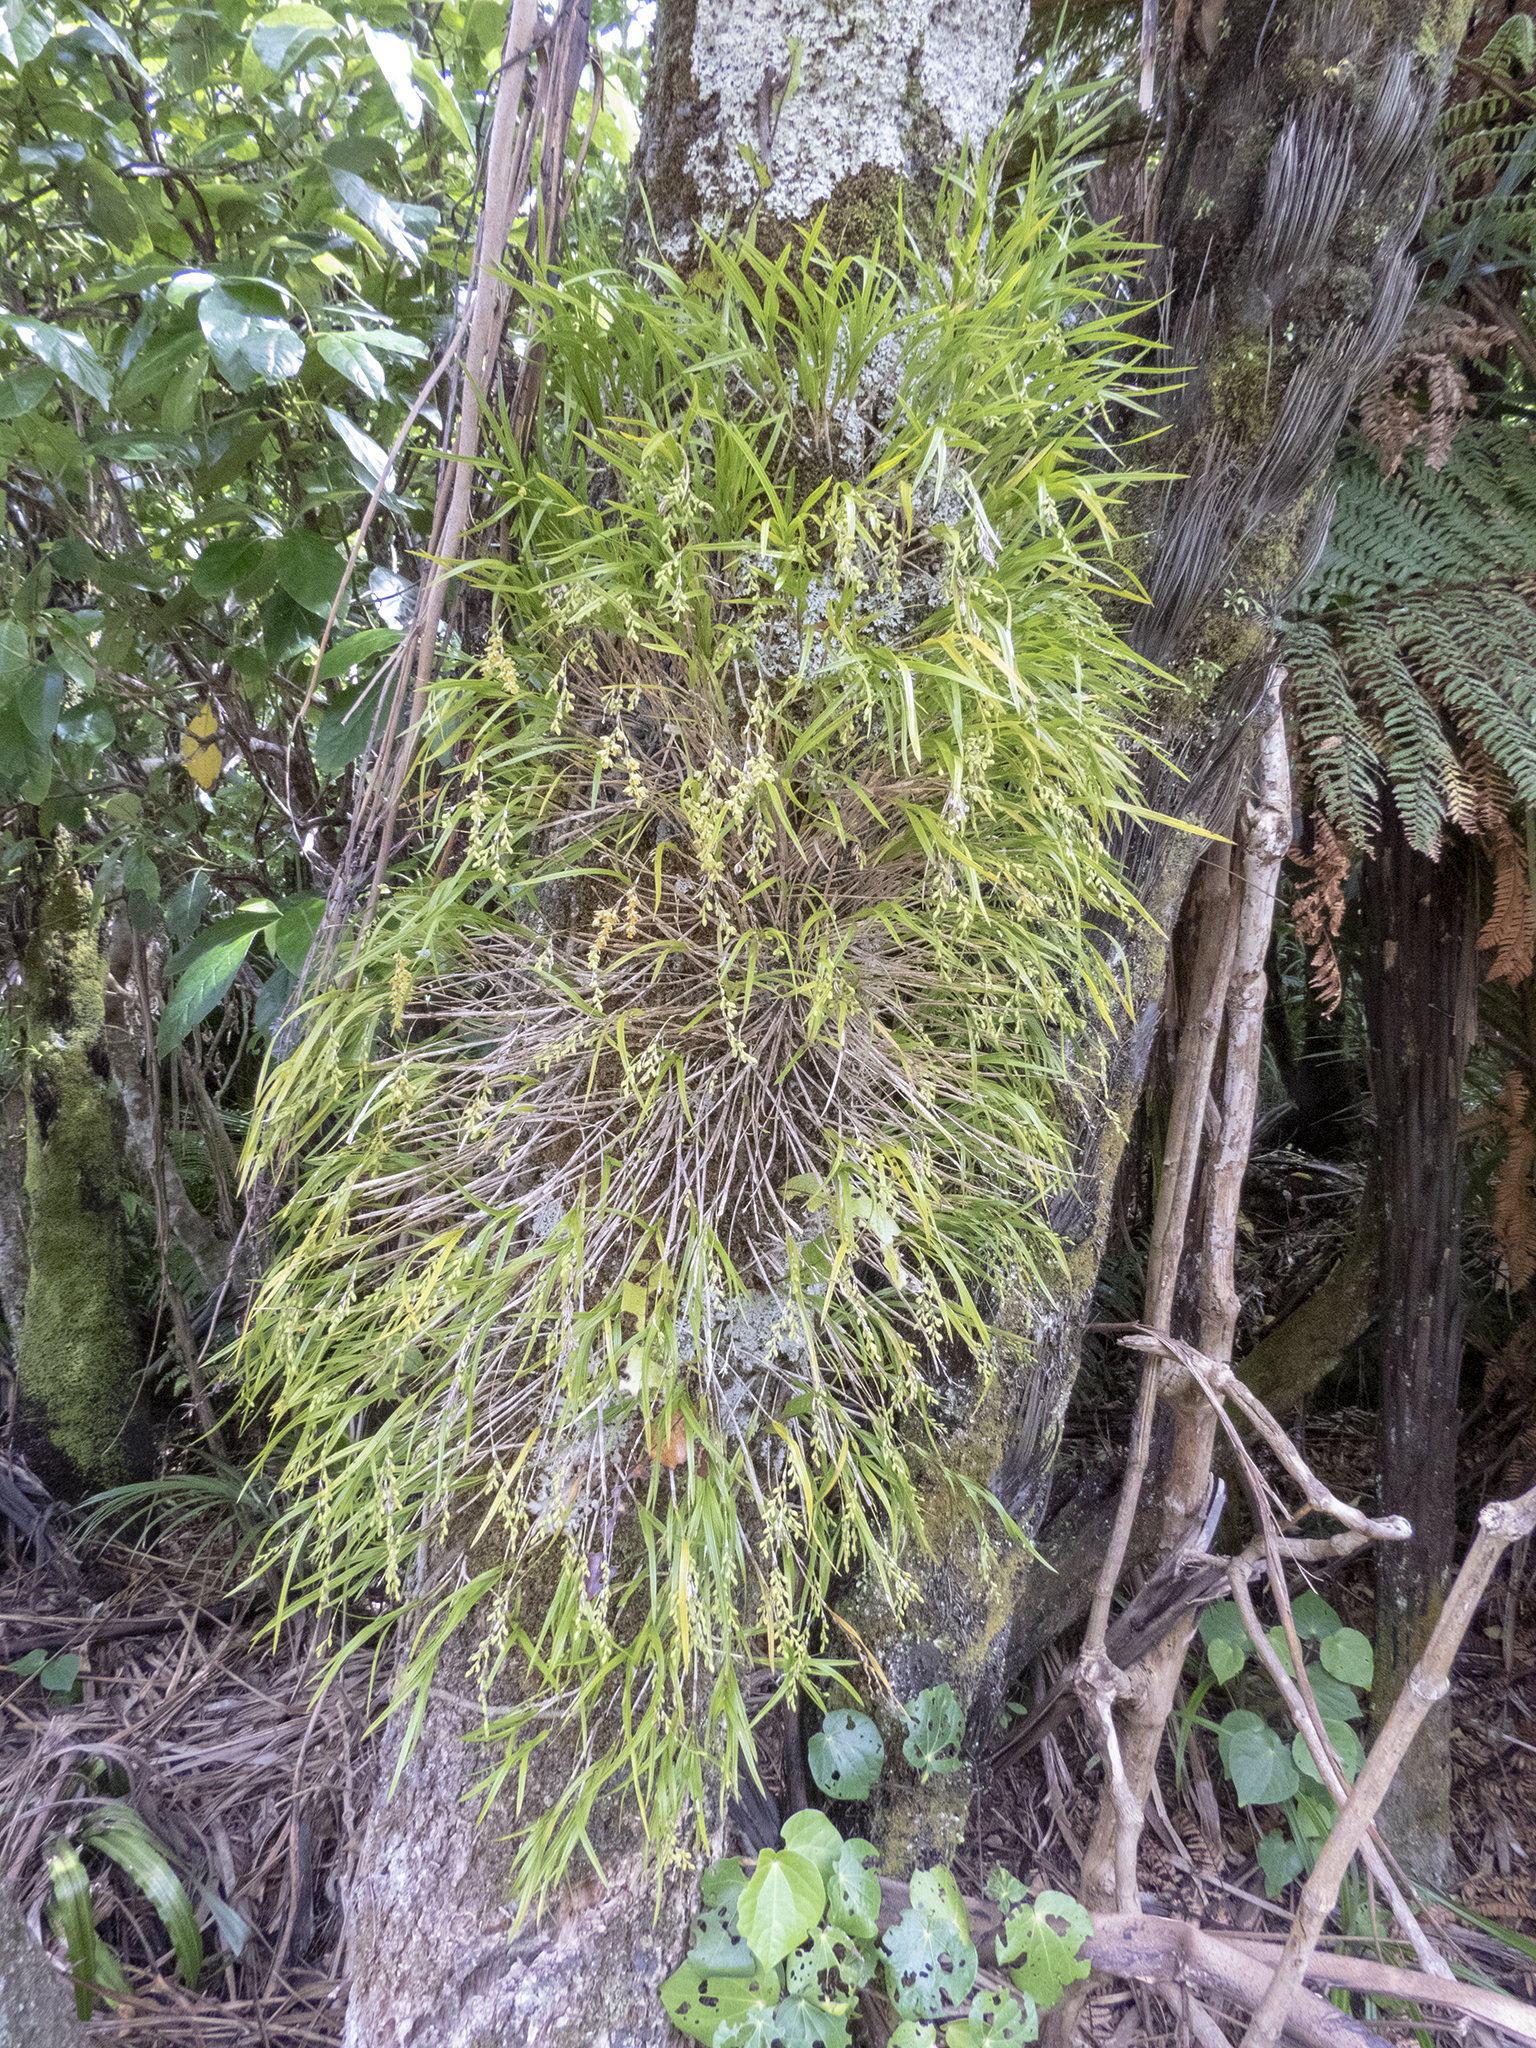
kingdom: Plantae
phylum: Tracheophyta
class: Liliopsida
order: Asparagales
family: Orchidaceae
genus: Earina
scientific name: Earina mucronata
